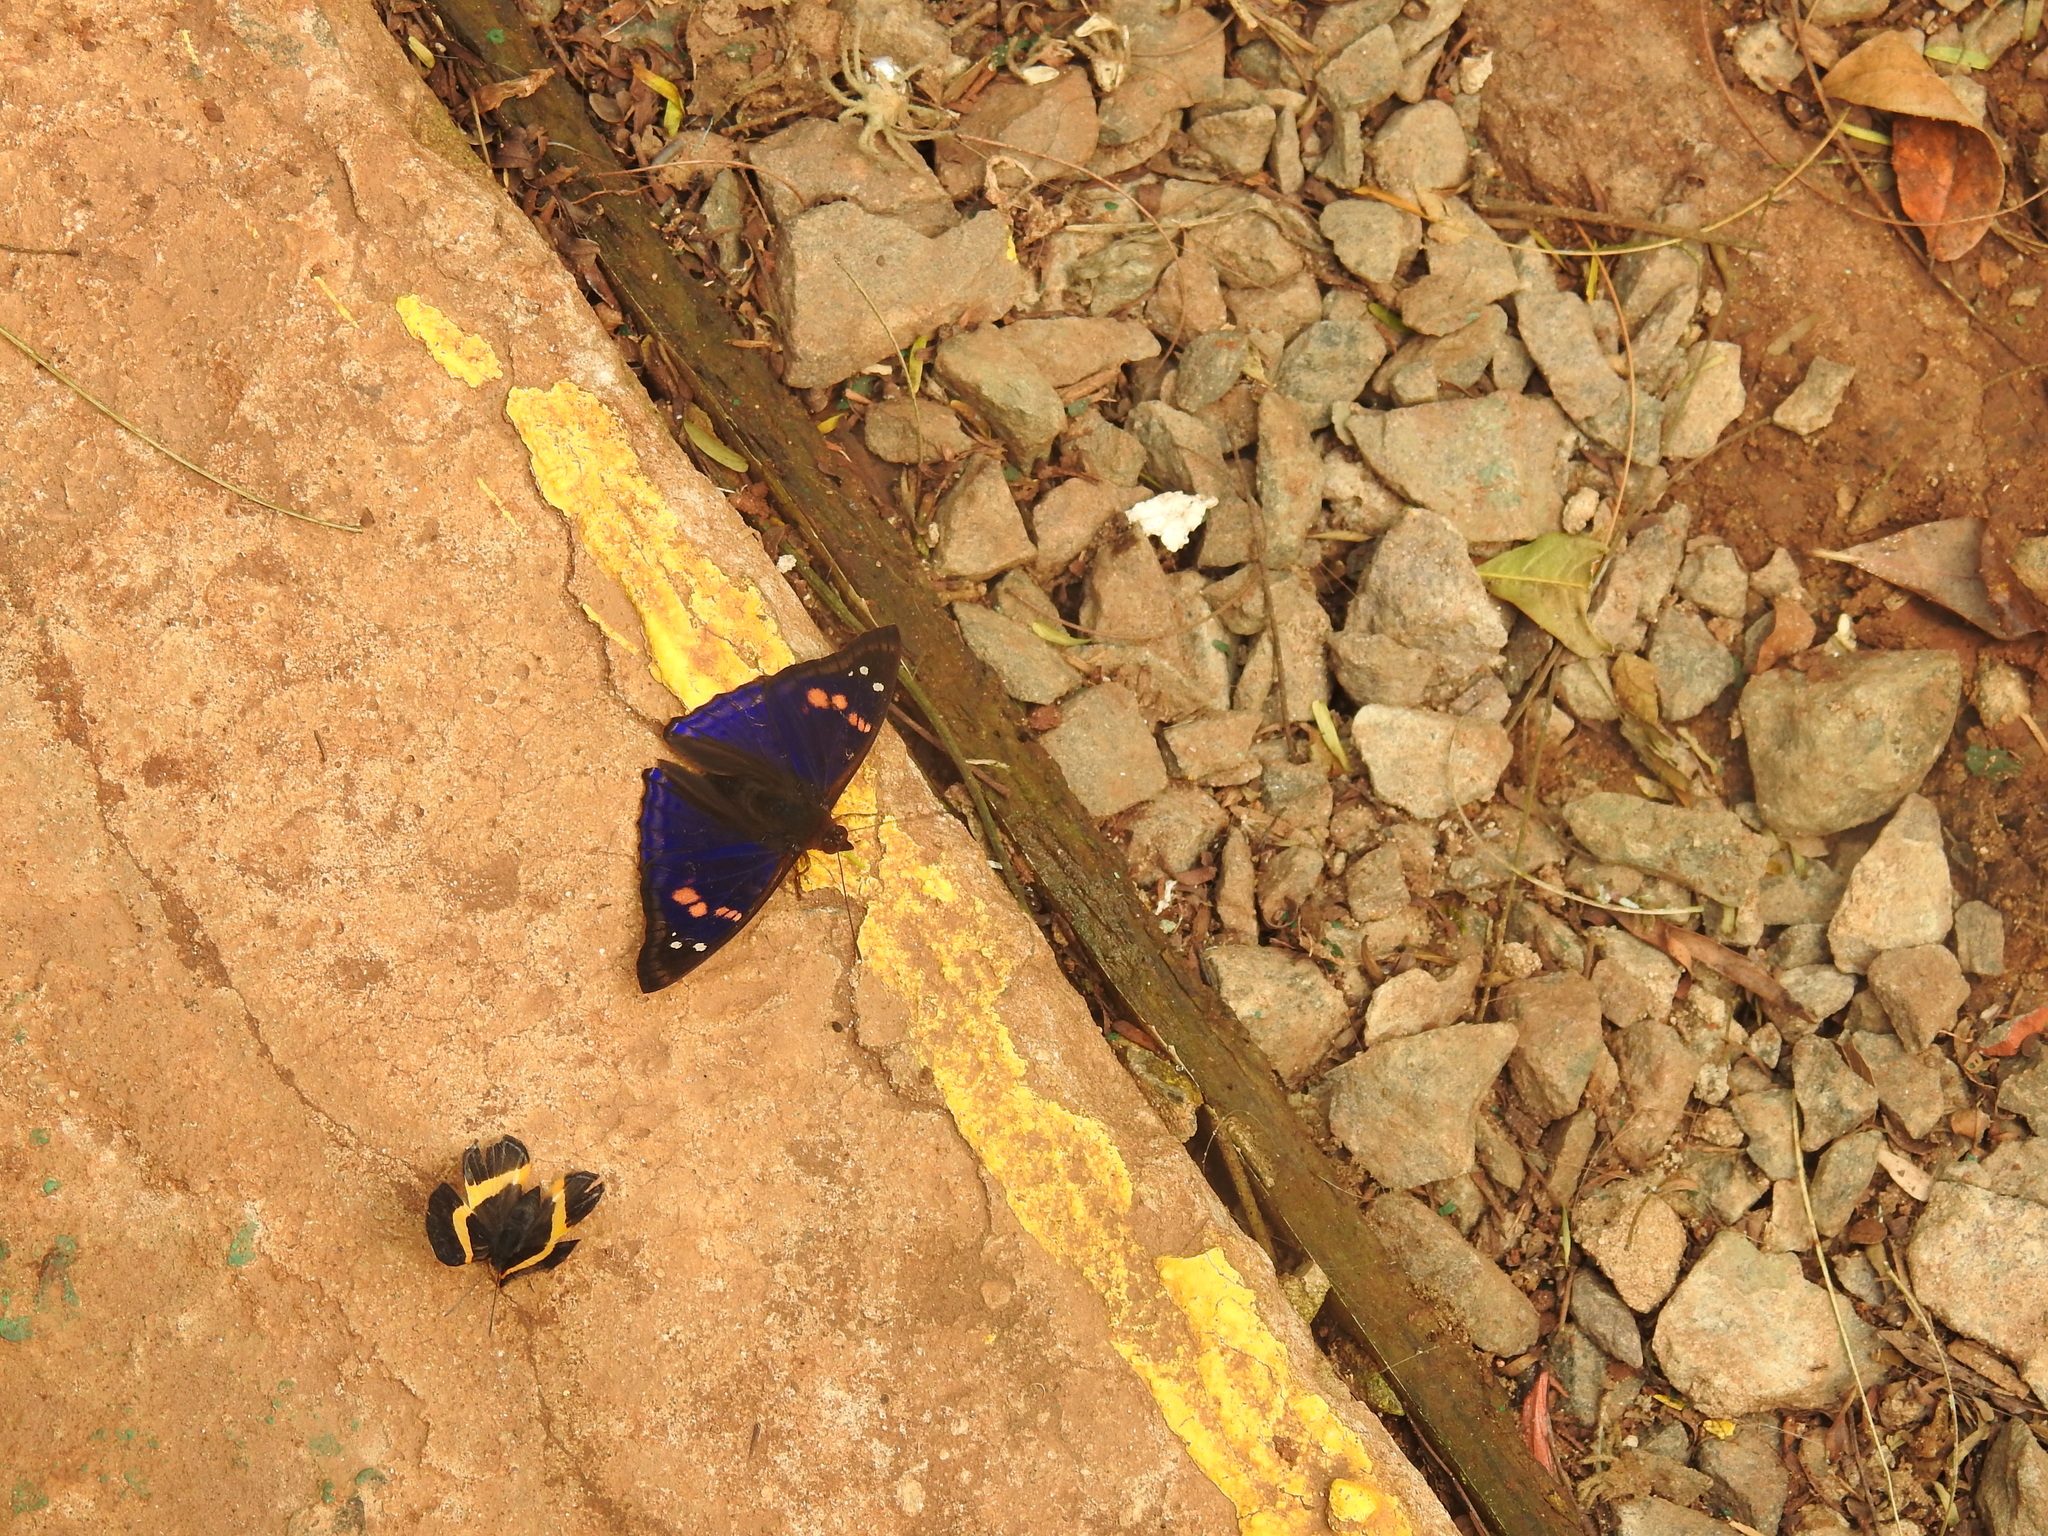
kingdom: Animalia
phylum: Arthropoda
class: Insecta
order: Lepidoptera
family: Nymphalidae
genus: Doxocopa
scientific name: Doxocopa agathina
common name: Agathina emperor
